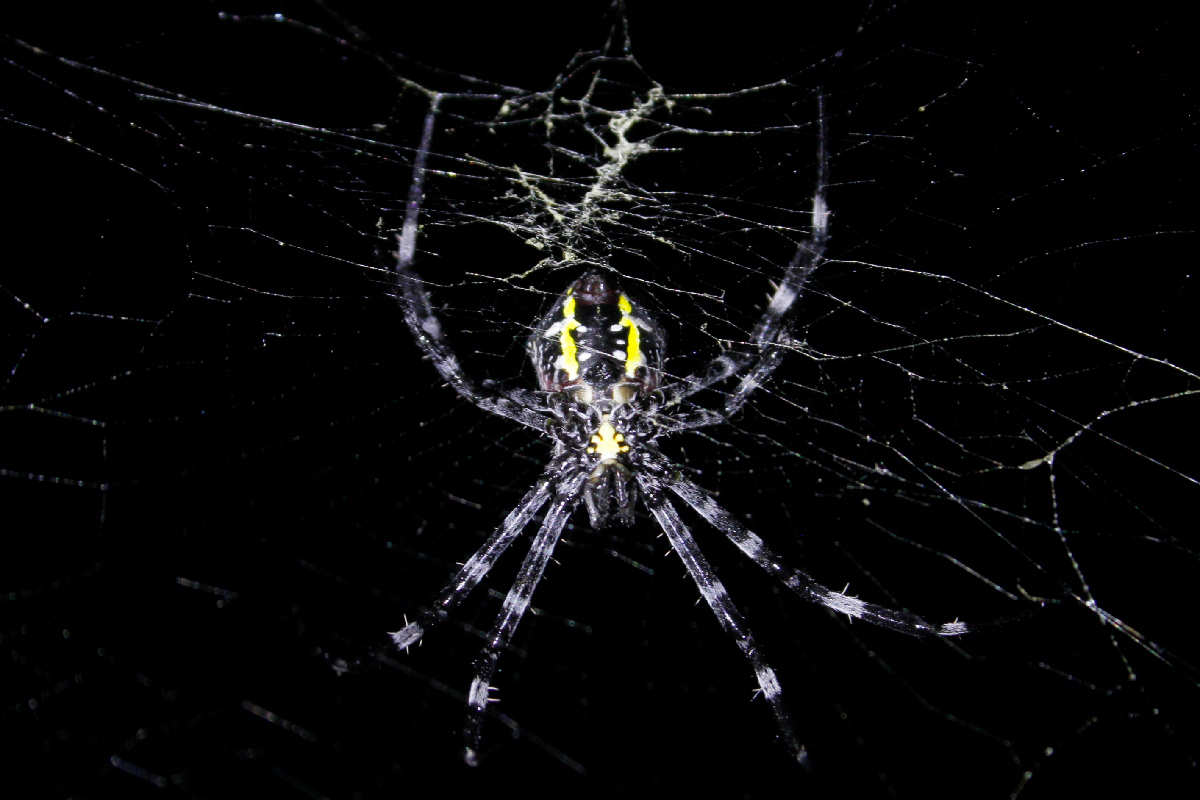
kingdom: Animalia
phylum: Arthropoda
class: Arachnida
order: Araneae
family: Araneidae
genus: Argiope
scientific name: Argiope appensa
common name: Garden spider
